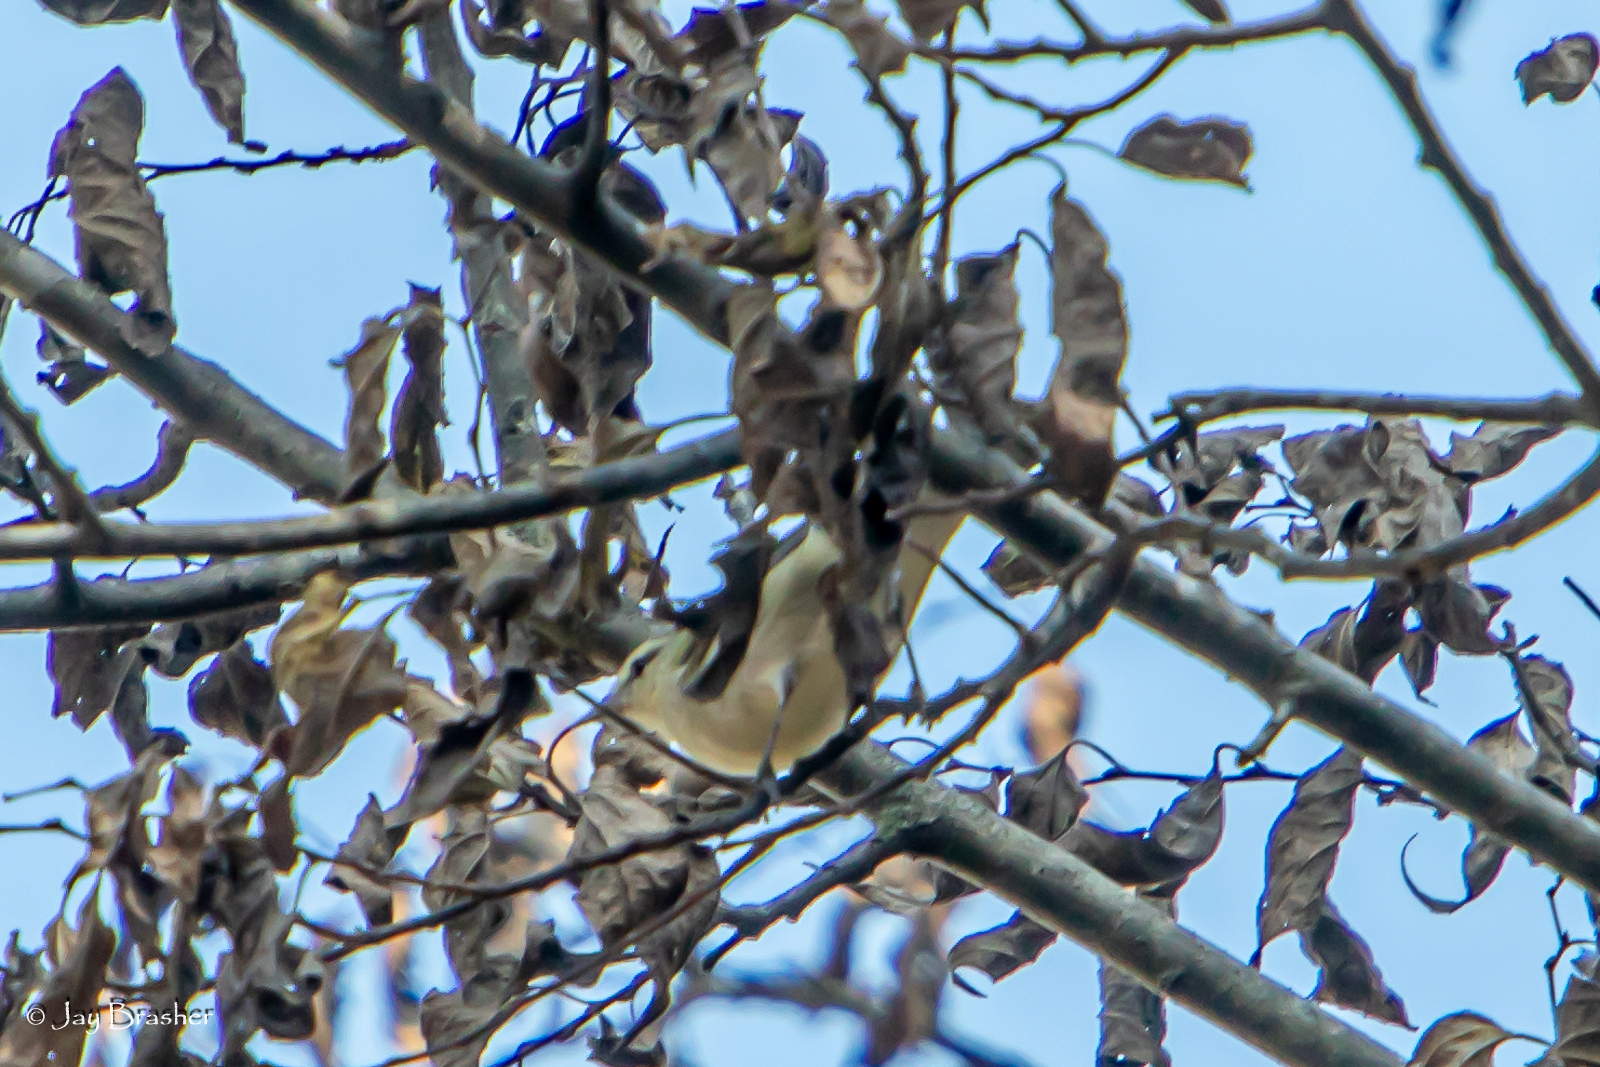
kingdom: Animalia
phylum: Chordata
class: Aves
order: Passeriformes
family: Parulidae
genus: Helmitheros
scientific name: Helmitheros vermivorum
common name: Worm-eating warbler
